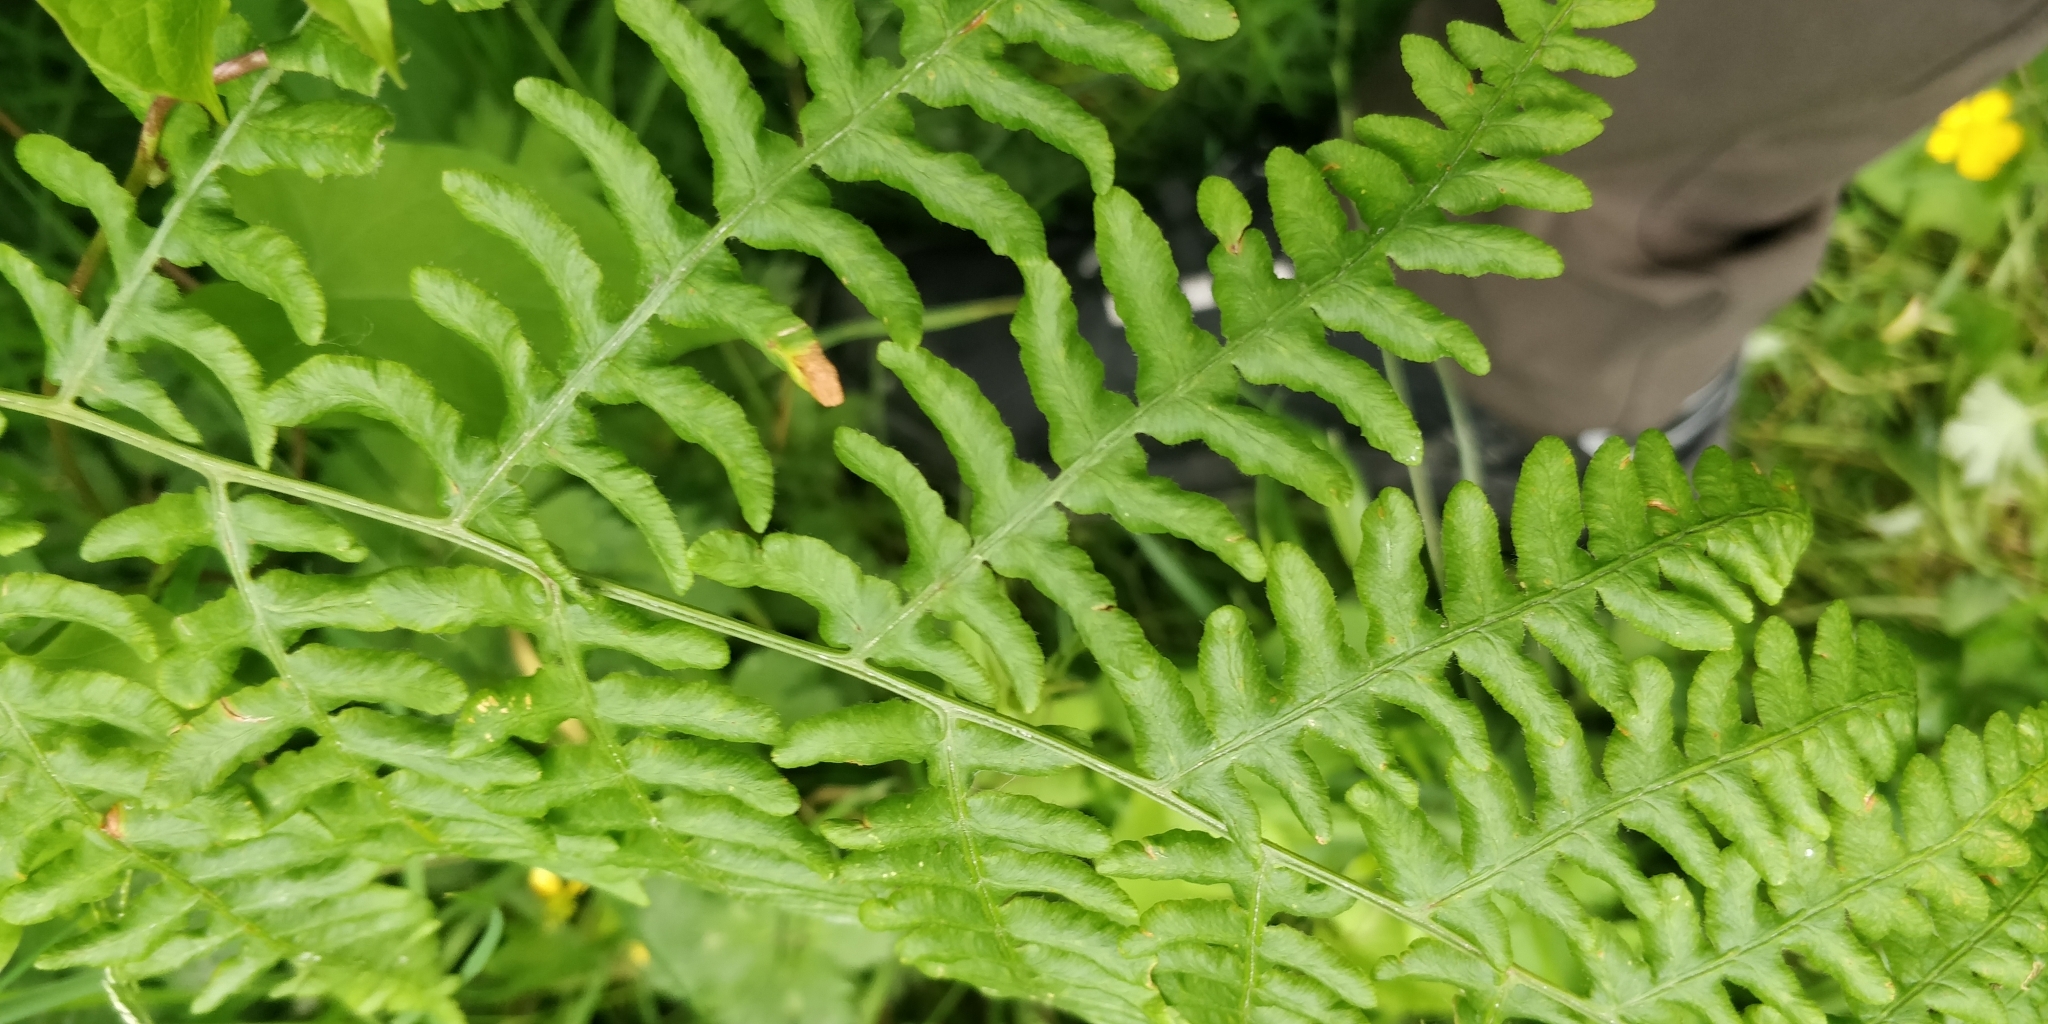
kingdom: Plantae
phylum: Tracheophyta
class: Polypodiopsida
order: Polypodiales
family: Dennstaedtiaceae
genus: Pteridium
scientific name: Pteridium aquilinum
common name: Bracken
